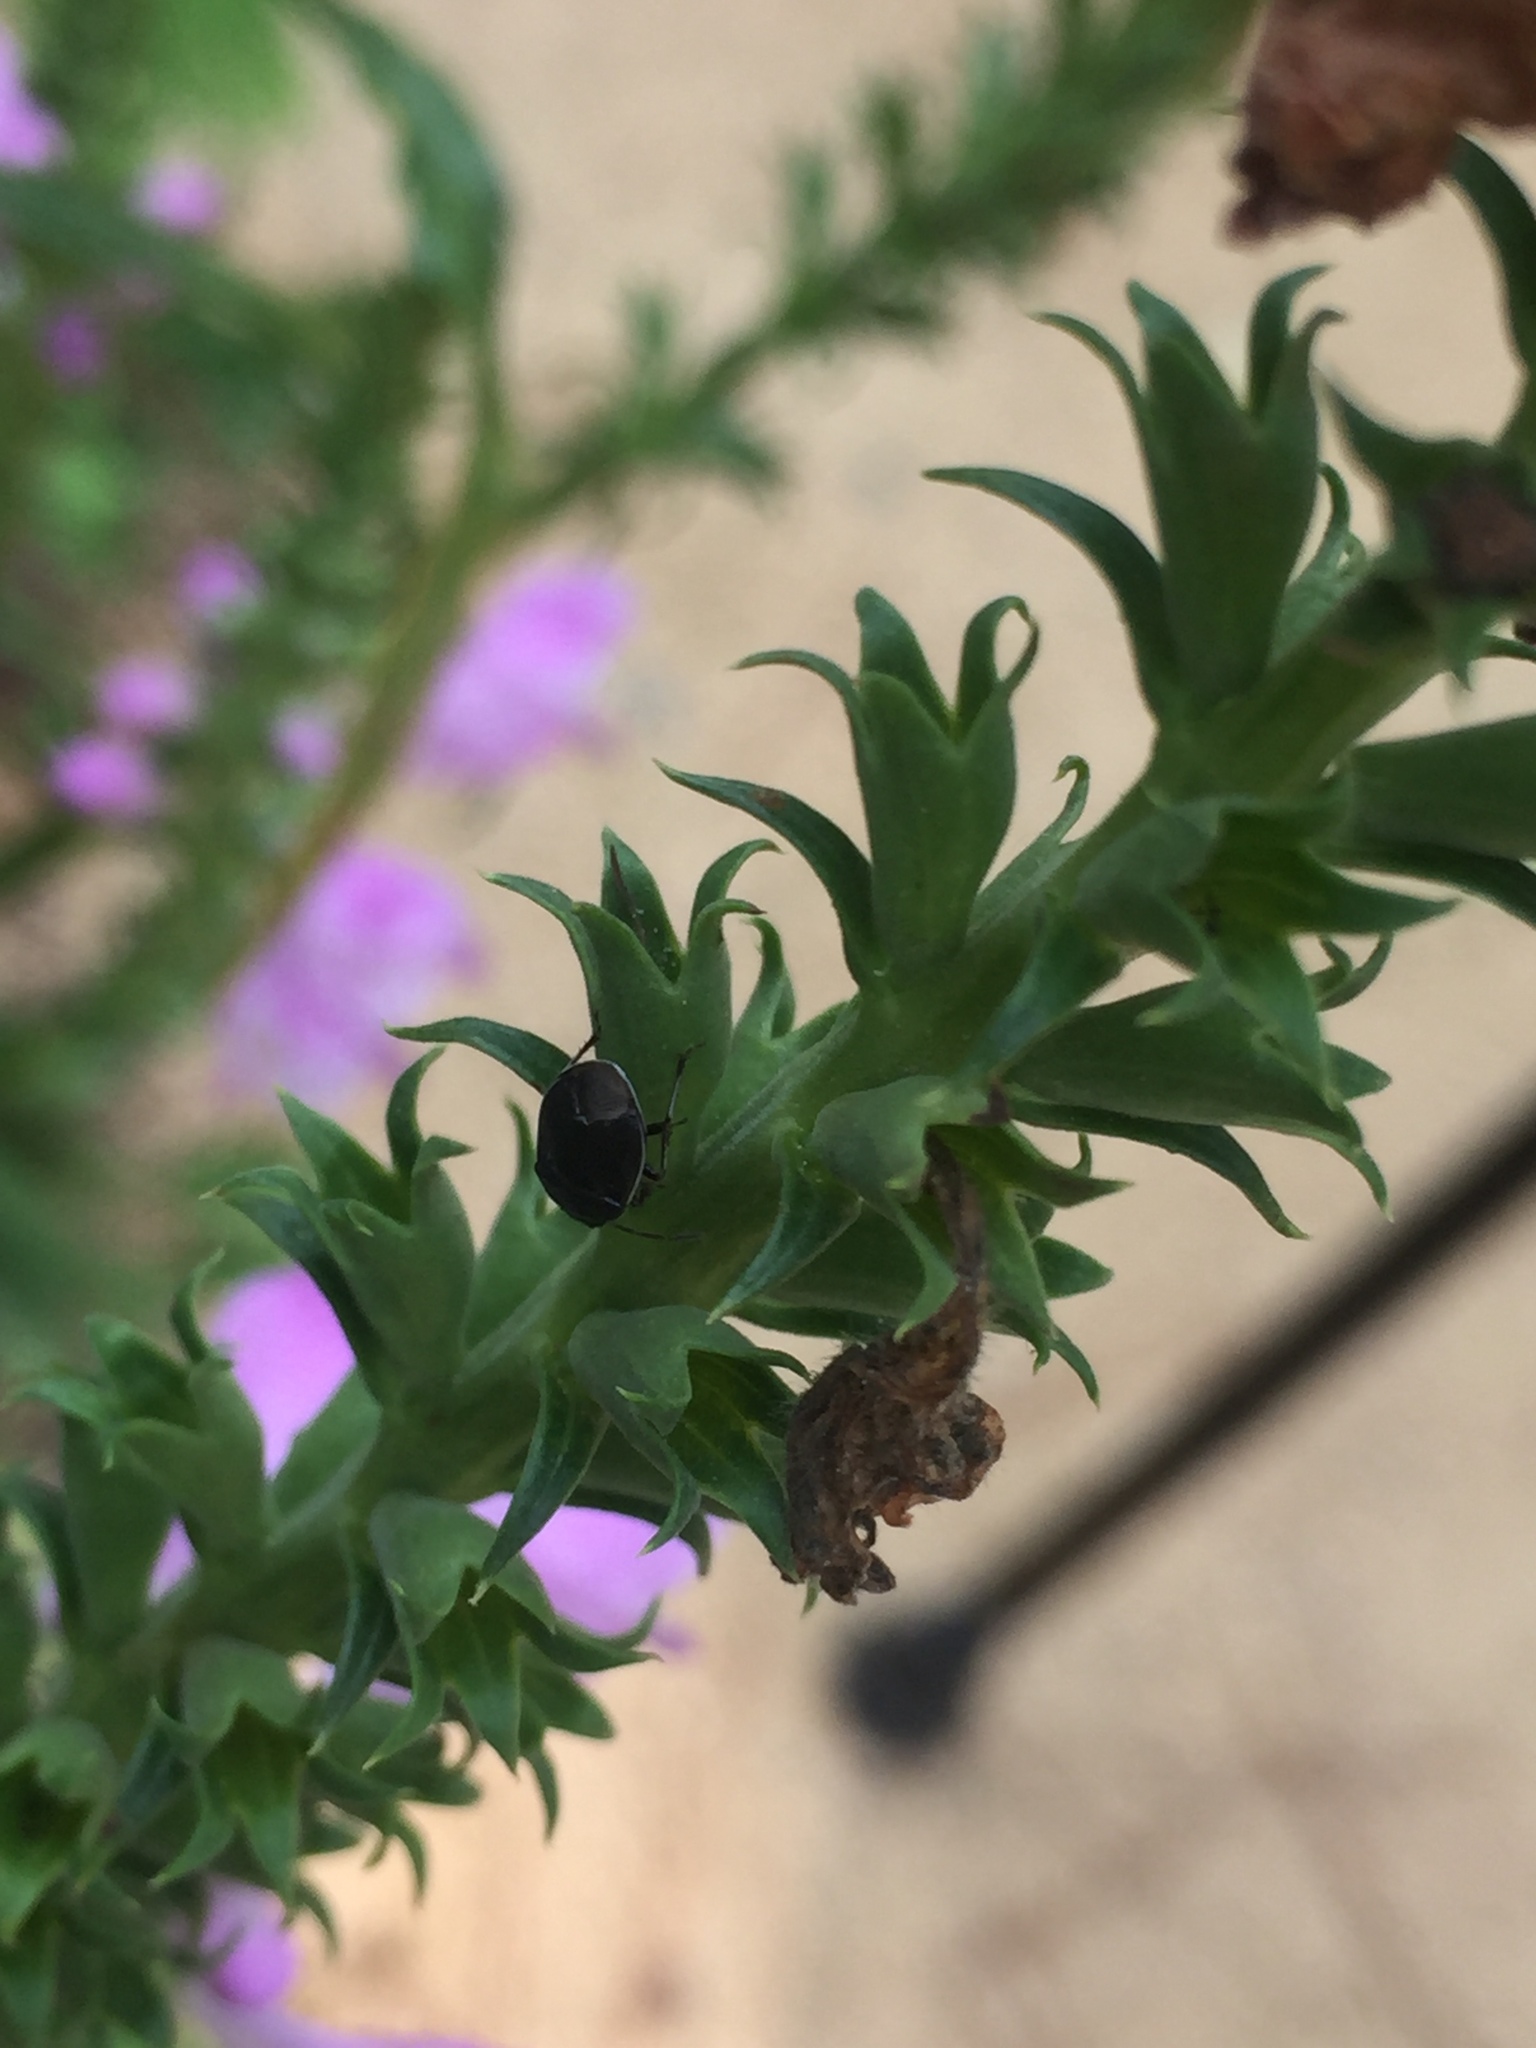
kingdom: Animalia
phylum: Arthropoda
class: Insecta
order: Hemiptera
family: Cydnidae
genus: Sehirus
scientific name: Sehirus cinctus
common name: White-margined burrower bug
